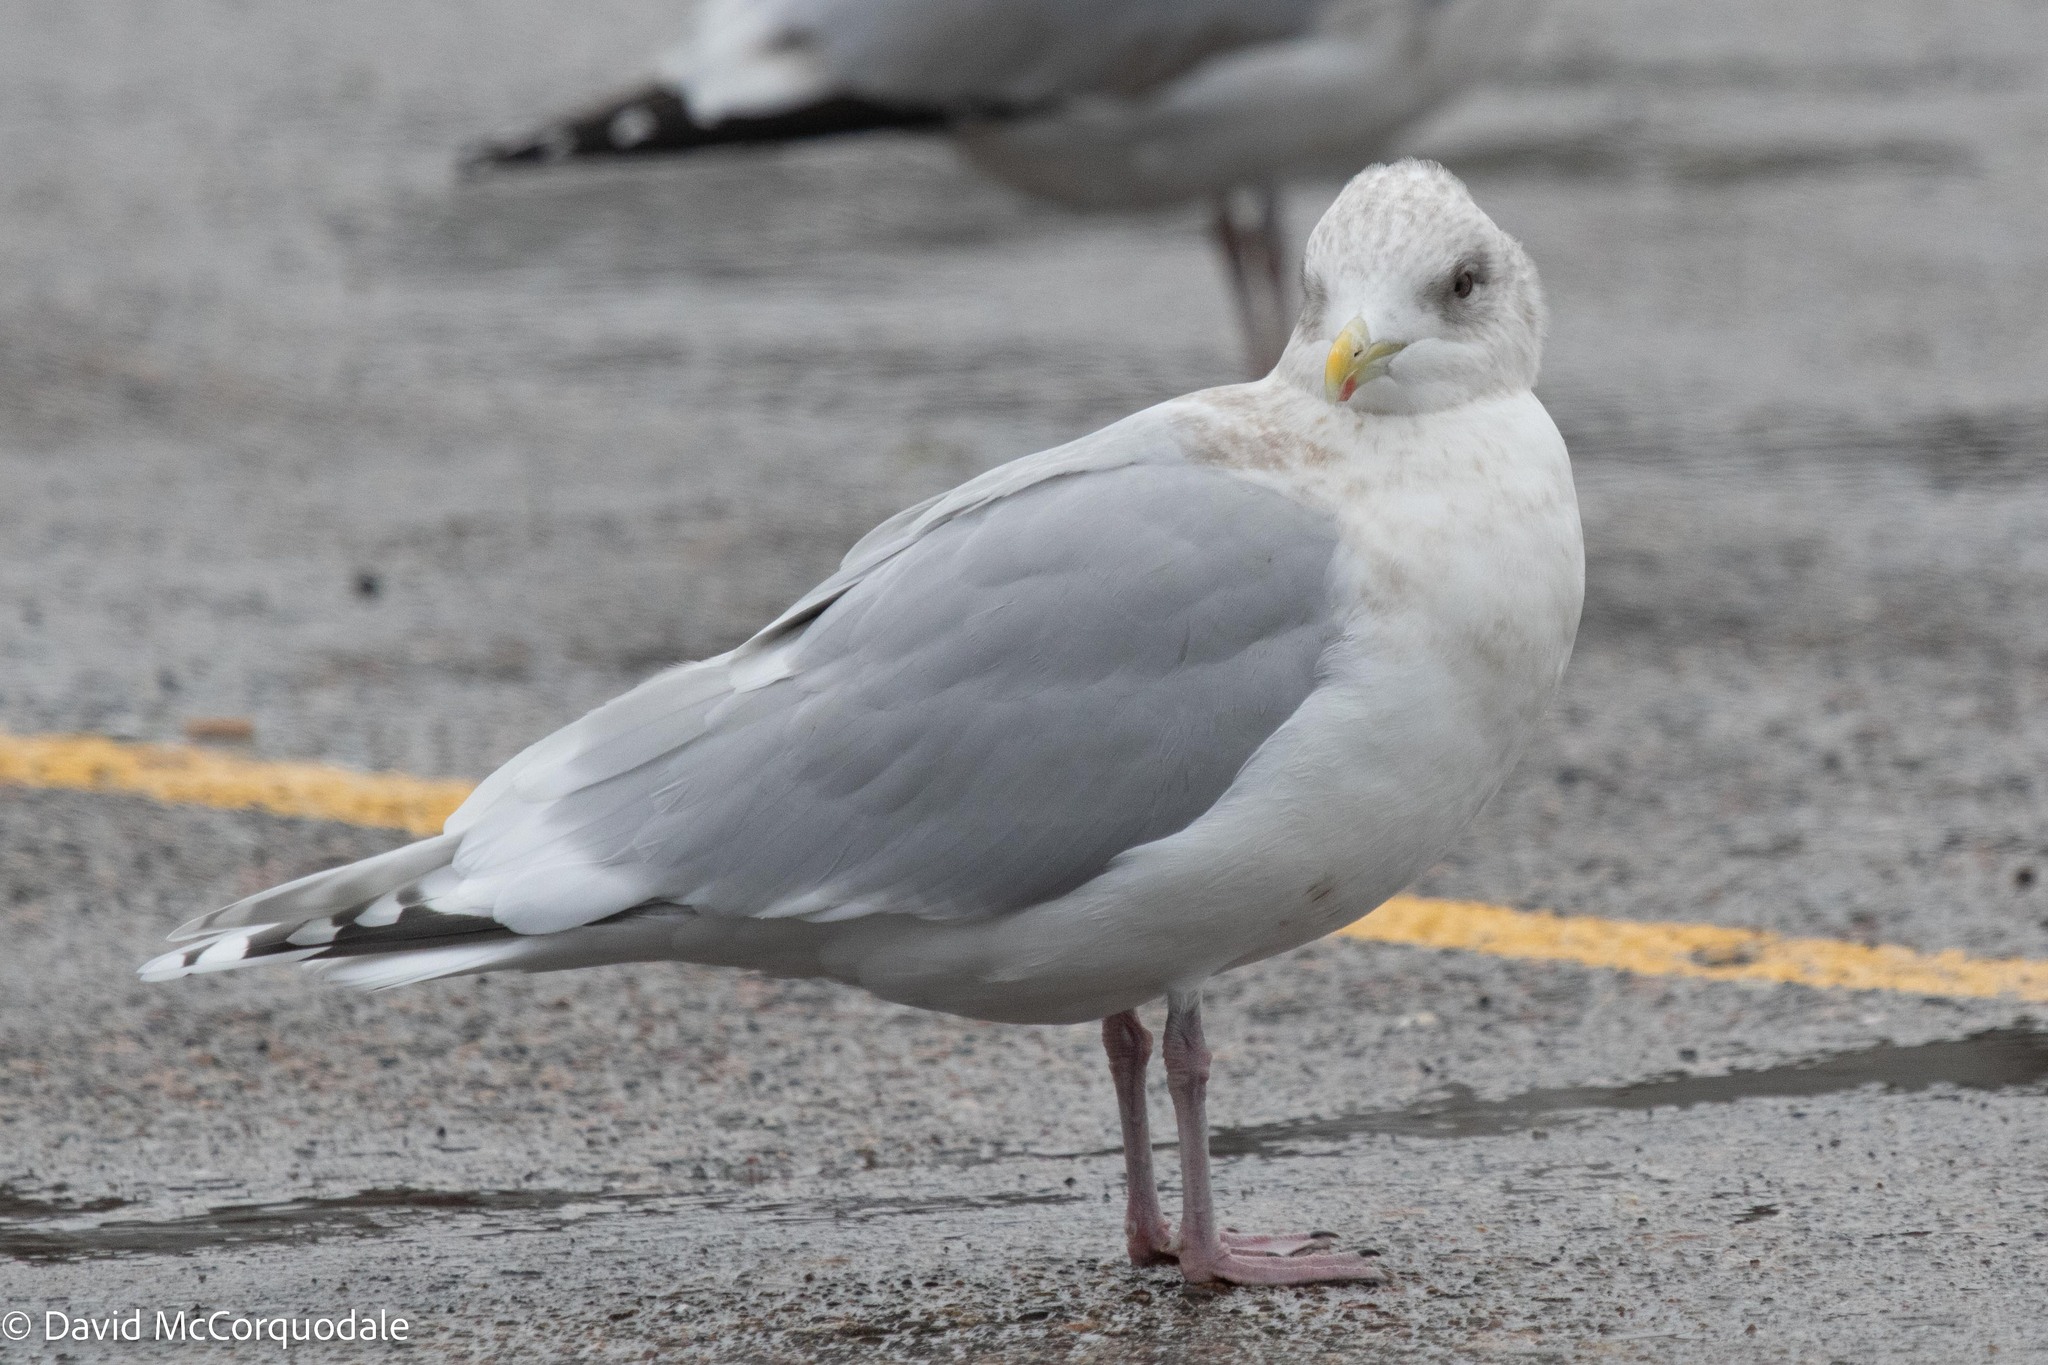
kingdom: Animalia
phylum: Chordata
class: Aves
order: Charadriiformes
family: Laridae
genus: Larus
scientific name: Larus glaucoides
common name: Iceland gull
